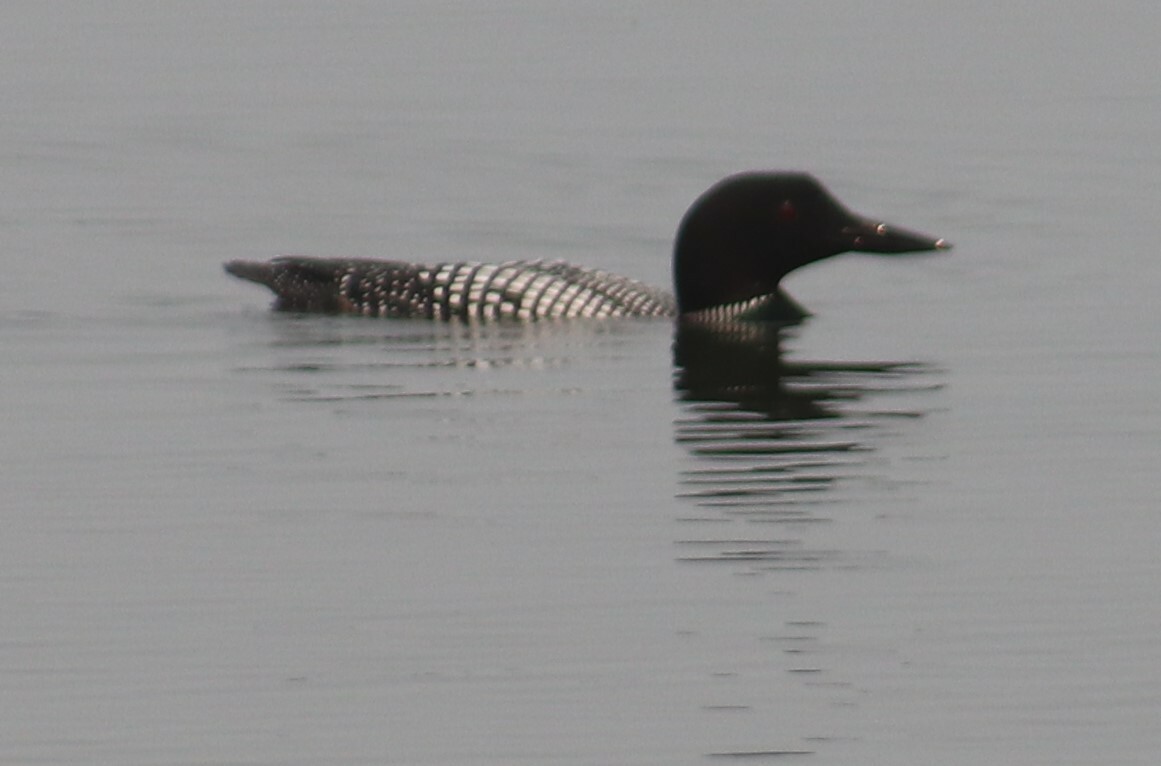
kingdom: Animalia
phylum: Chordata
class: Aves
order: Gaviiformes
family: Gaviidae
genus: Gavia
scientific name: Gavia immer
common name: Common loon
